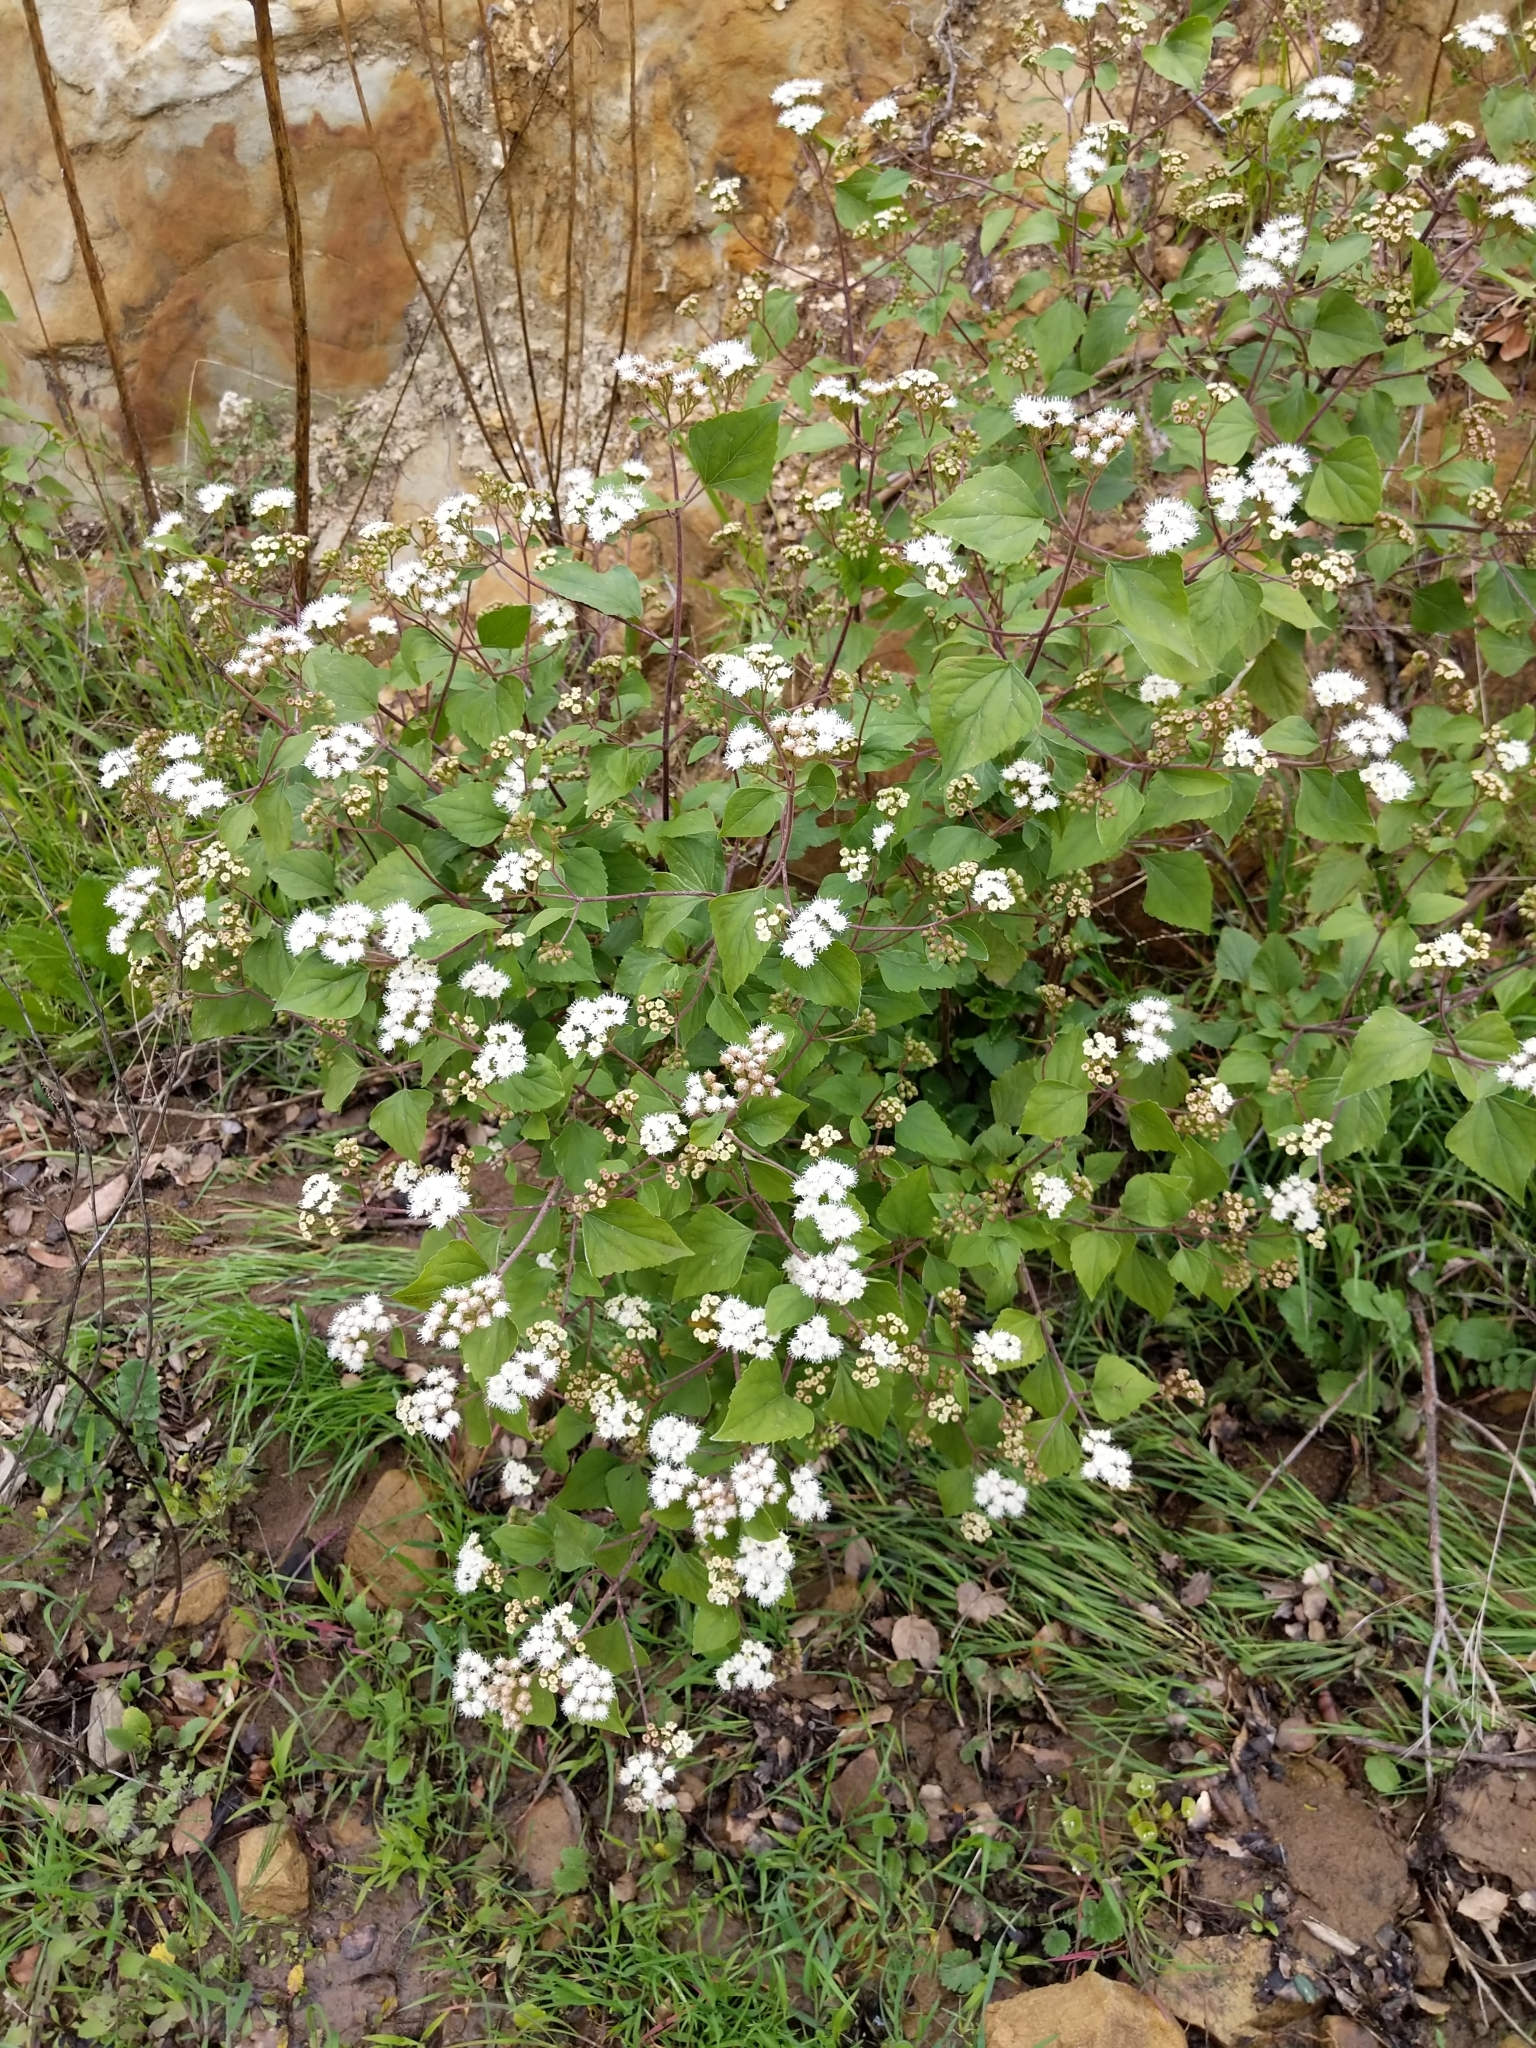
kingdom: Plantae
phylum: Tracheophyta
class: Magnoliopsida
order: Asterales
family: Asteraceae
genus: Ageratina
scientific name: Ageratina adenophora
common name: Sticky snakeroot
